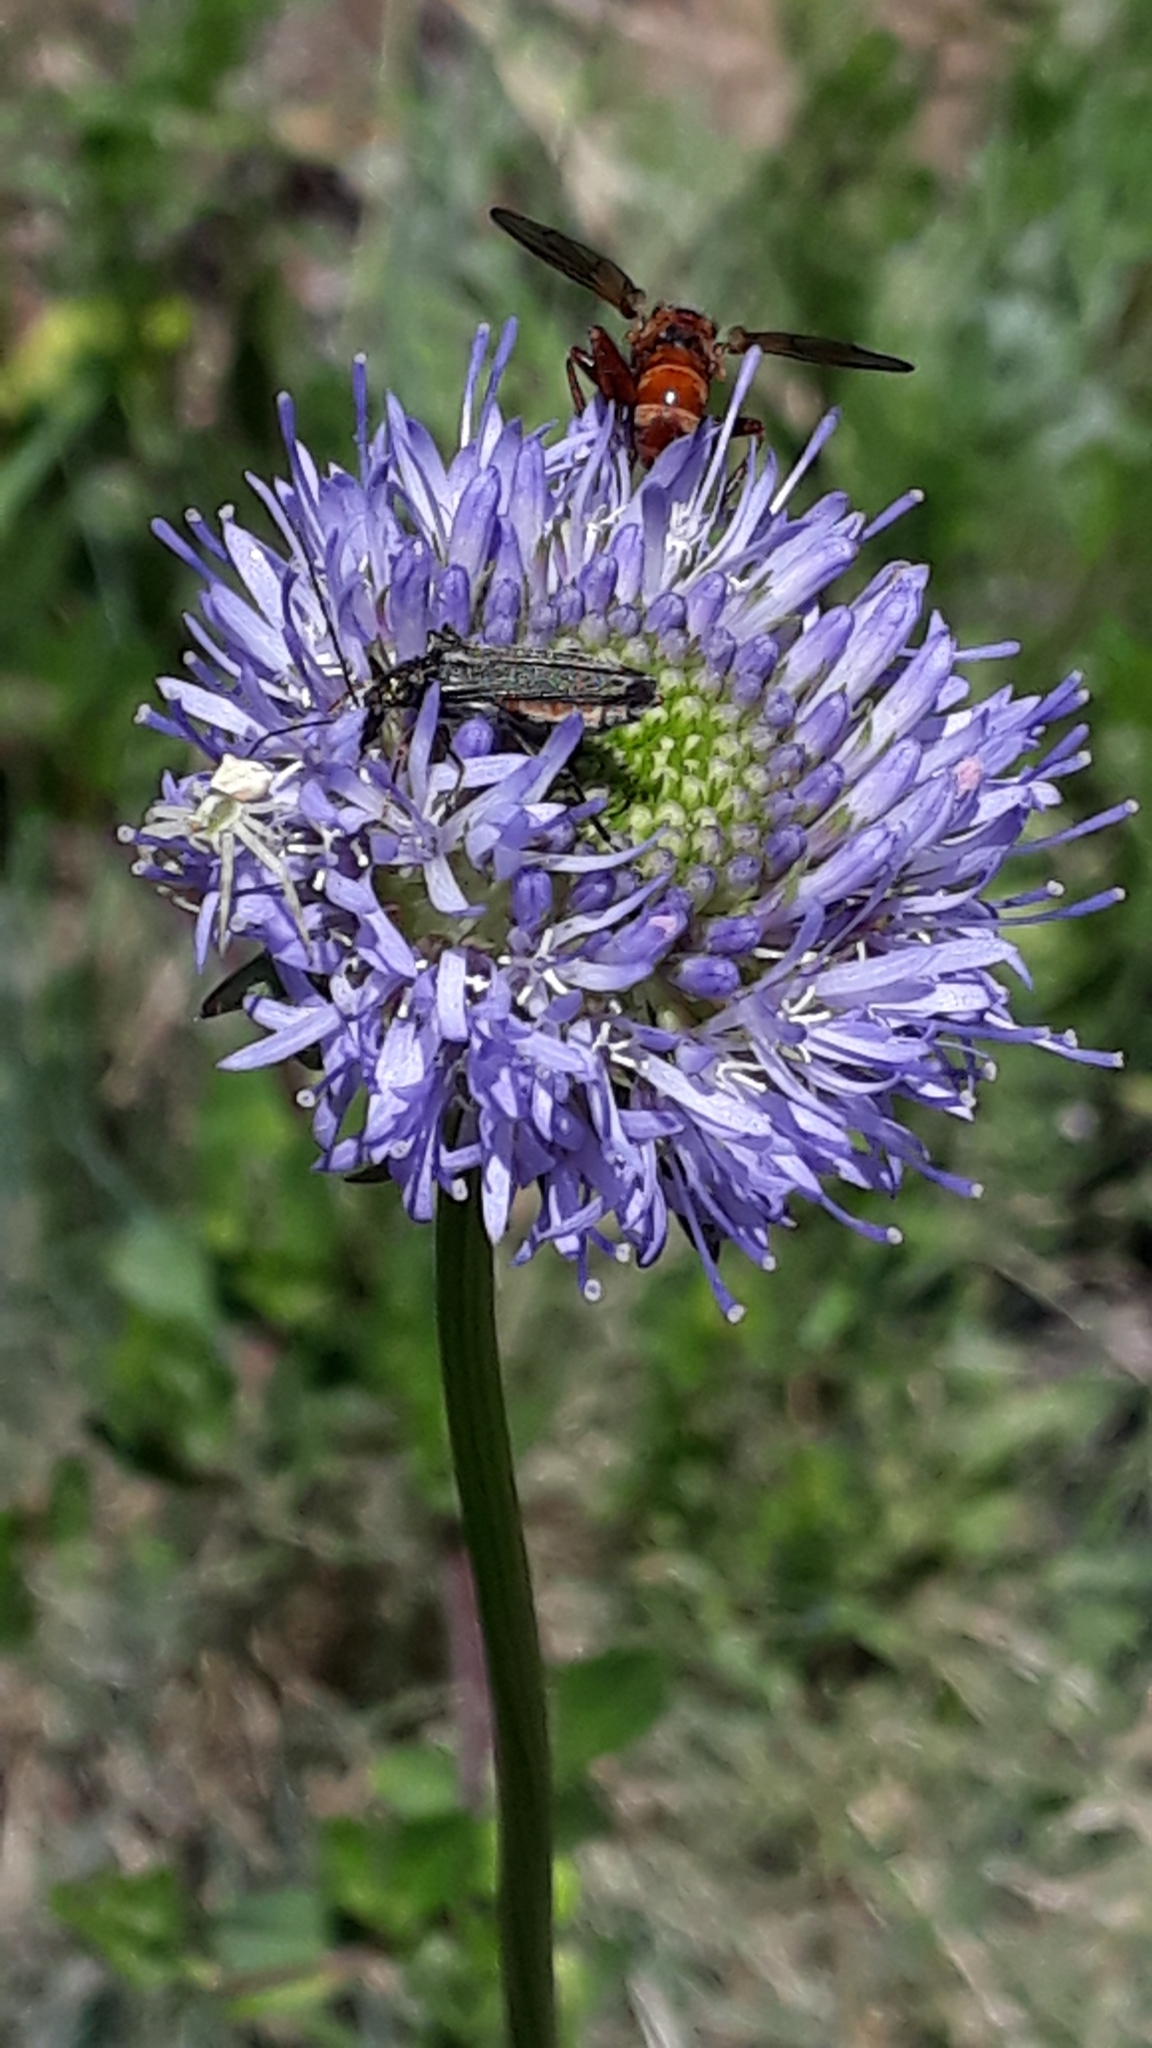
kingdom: Plantae
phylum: Tracheophyta
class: Magnoliopsida
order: Asterales
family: Campanulaceae
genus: Jasione
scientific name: Jasione montana
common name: Sheep's-bit
